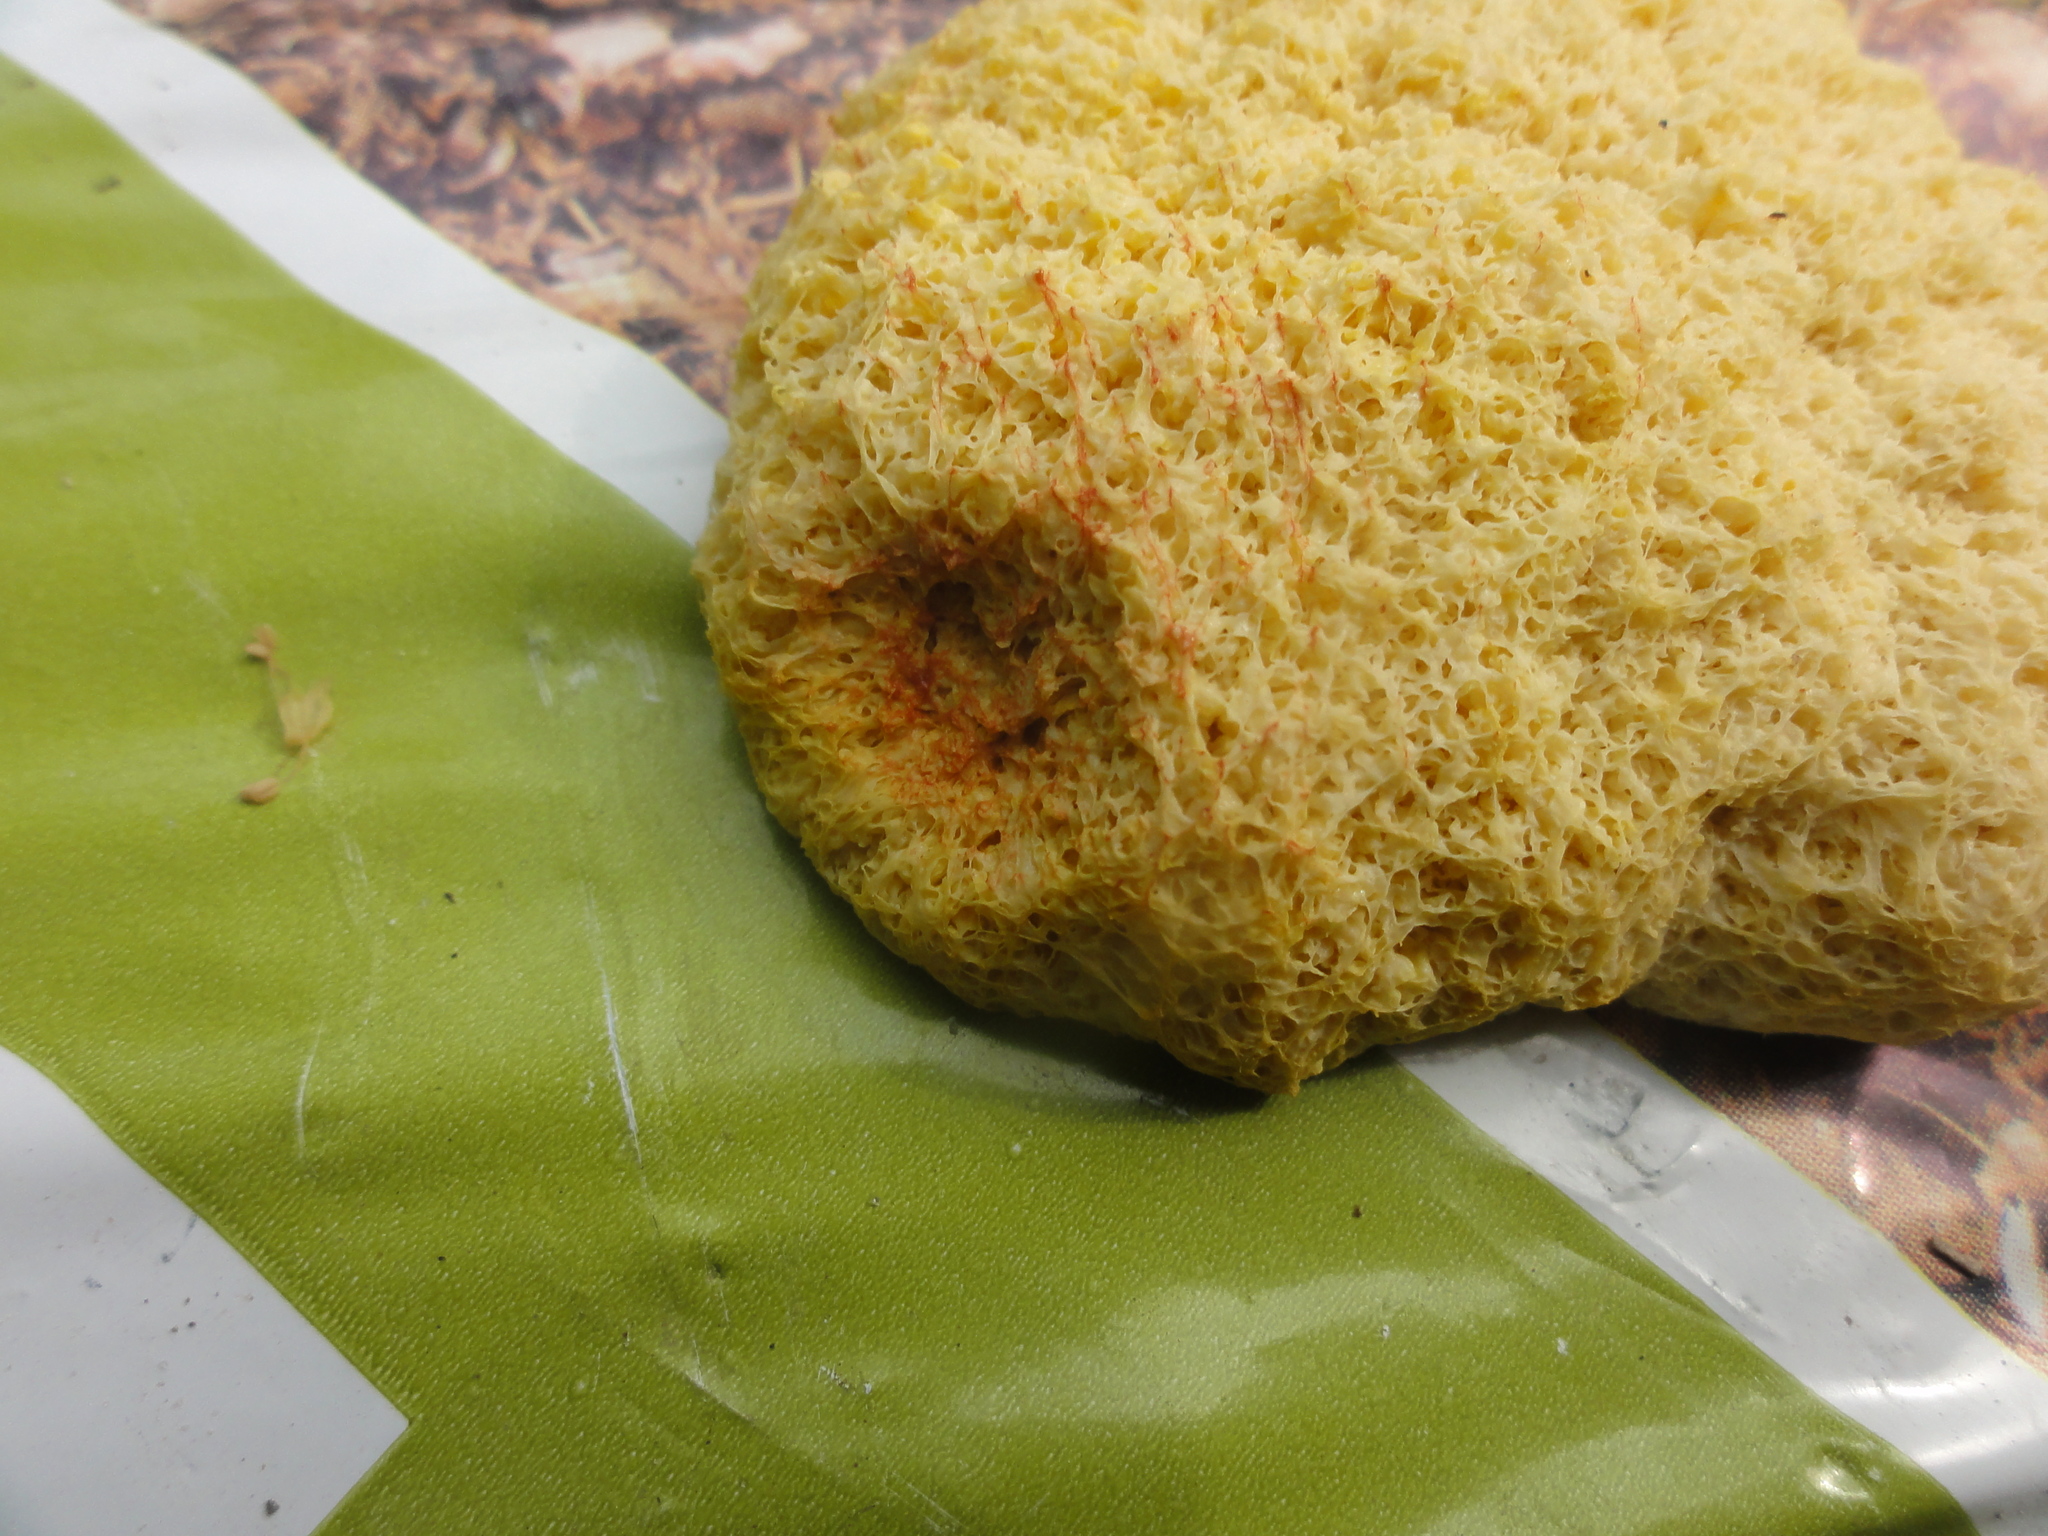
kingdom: Protozoa
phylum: Mycetozoa
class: Myxomycetes
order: Physarales
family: Physaraceae
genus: Fuligo
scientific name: Fuligo septica
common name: Dog vomit slime mold
